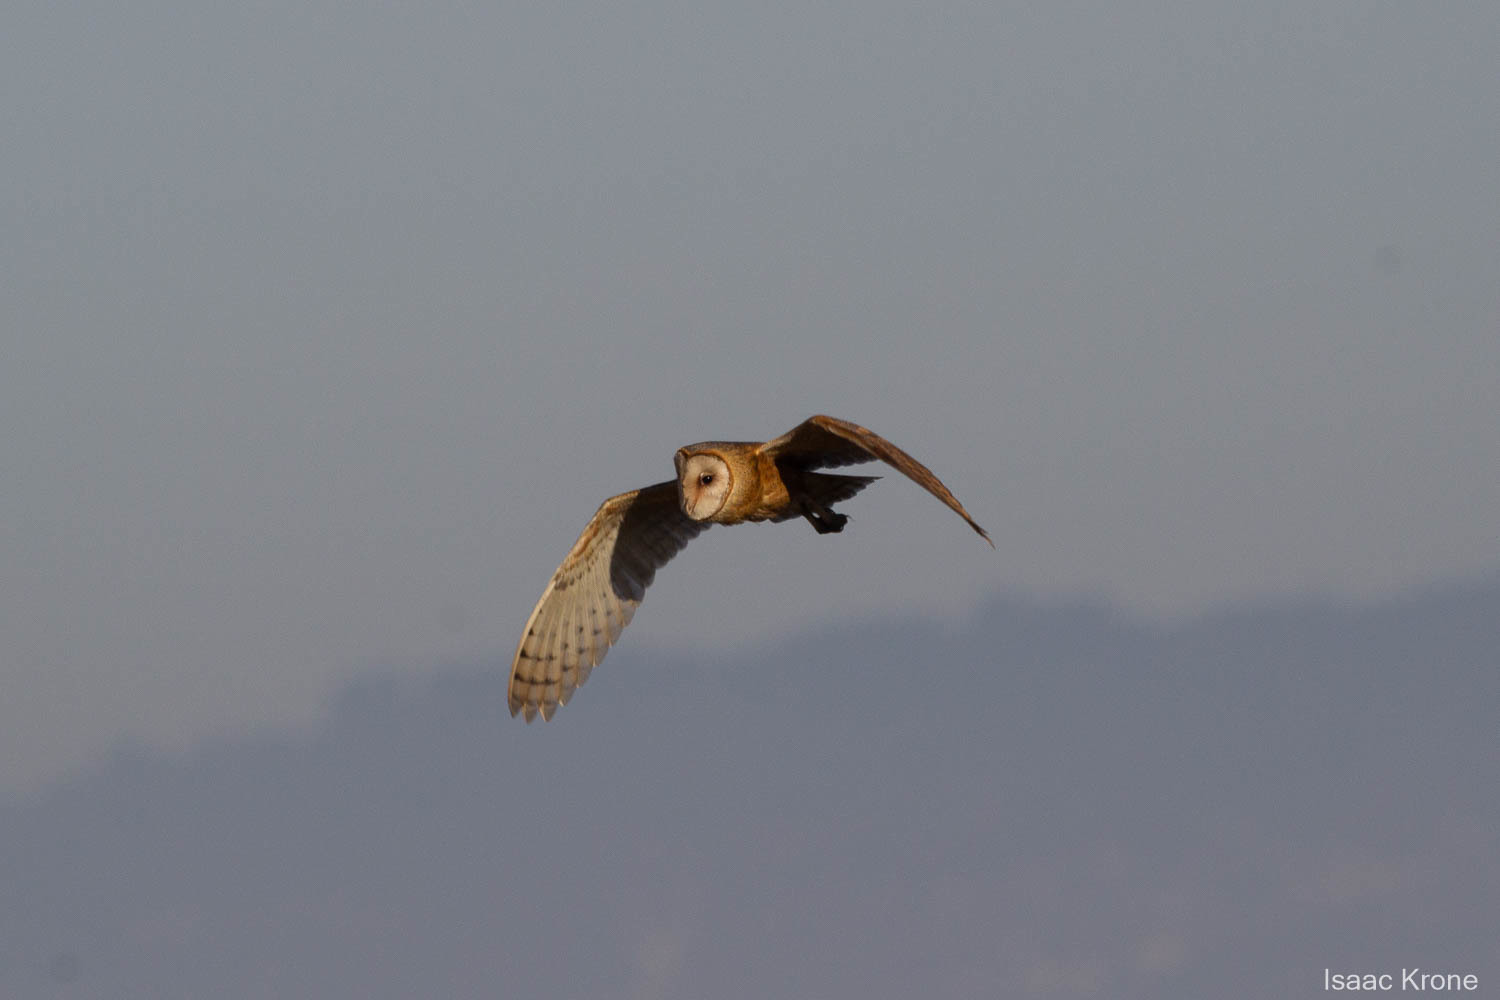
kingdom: Animalia
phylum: Chordata
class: Aves
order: Strigiformes
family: Tytonidae
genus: Tyto
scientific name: Tyto alba
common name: Barn owl
